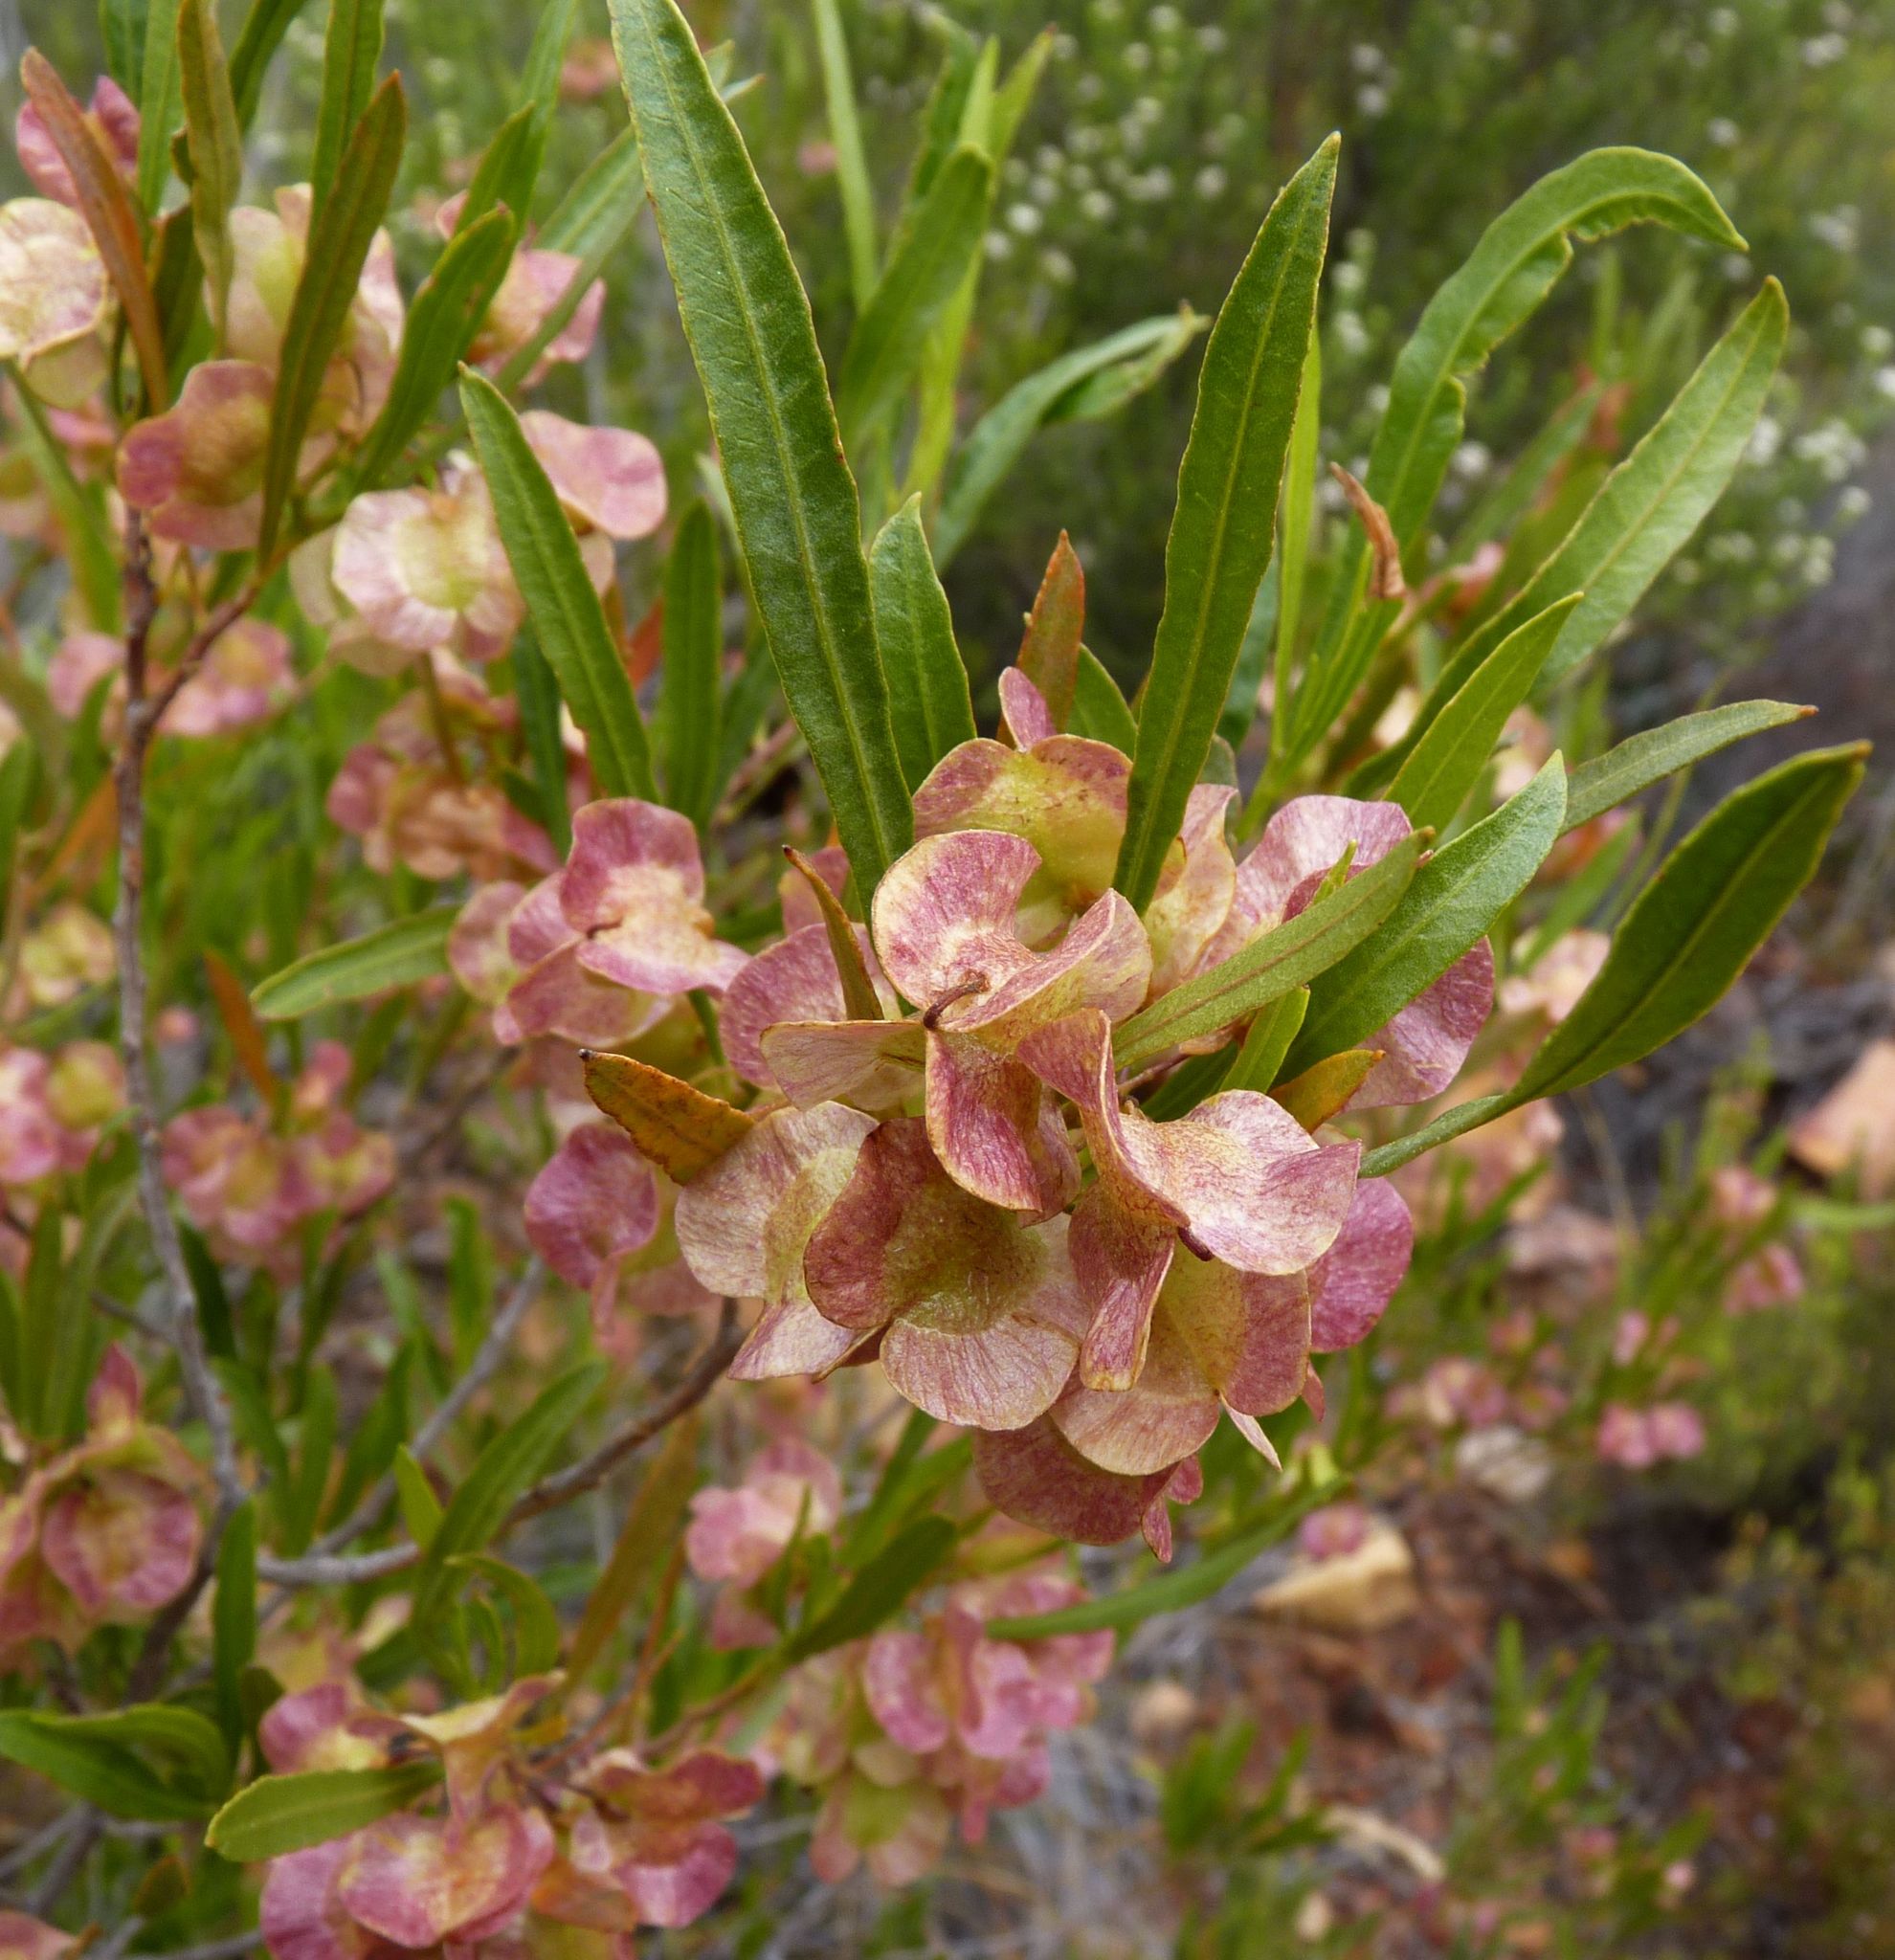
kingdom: Plantae
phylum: Tracheophyta
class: Magnoliopsida
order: Sapindales
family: Sapindaceae
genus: Dodonaea
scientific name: Dodonaea viscosa
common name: Hopbush
